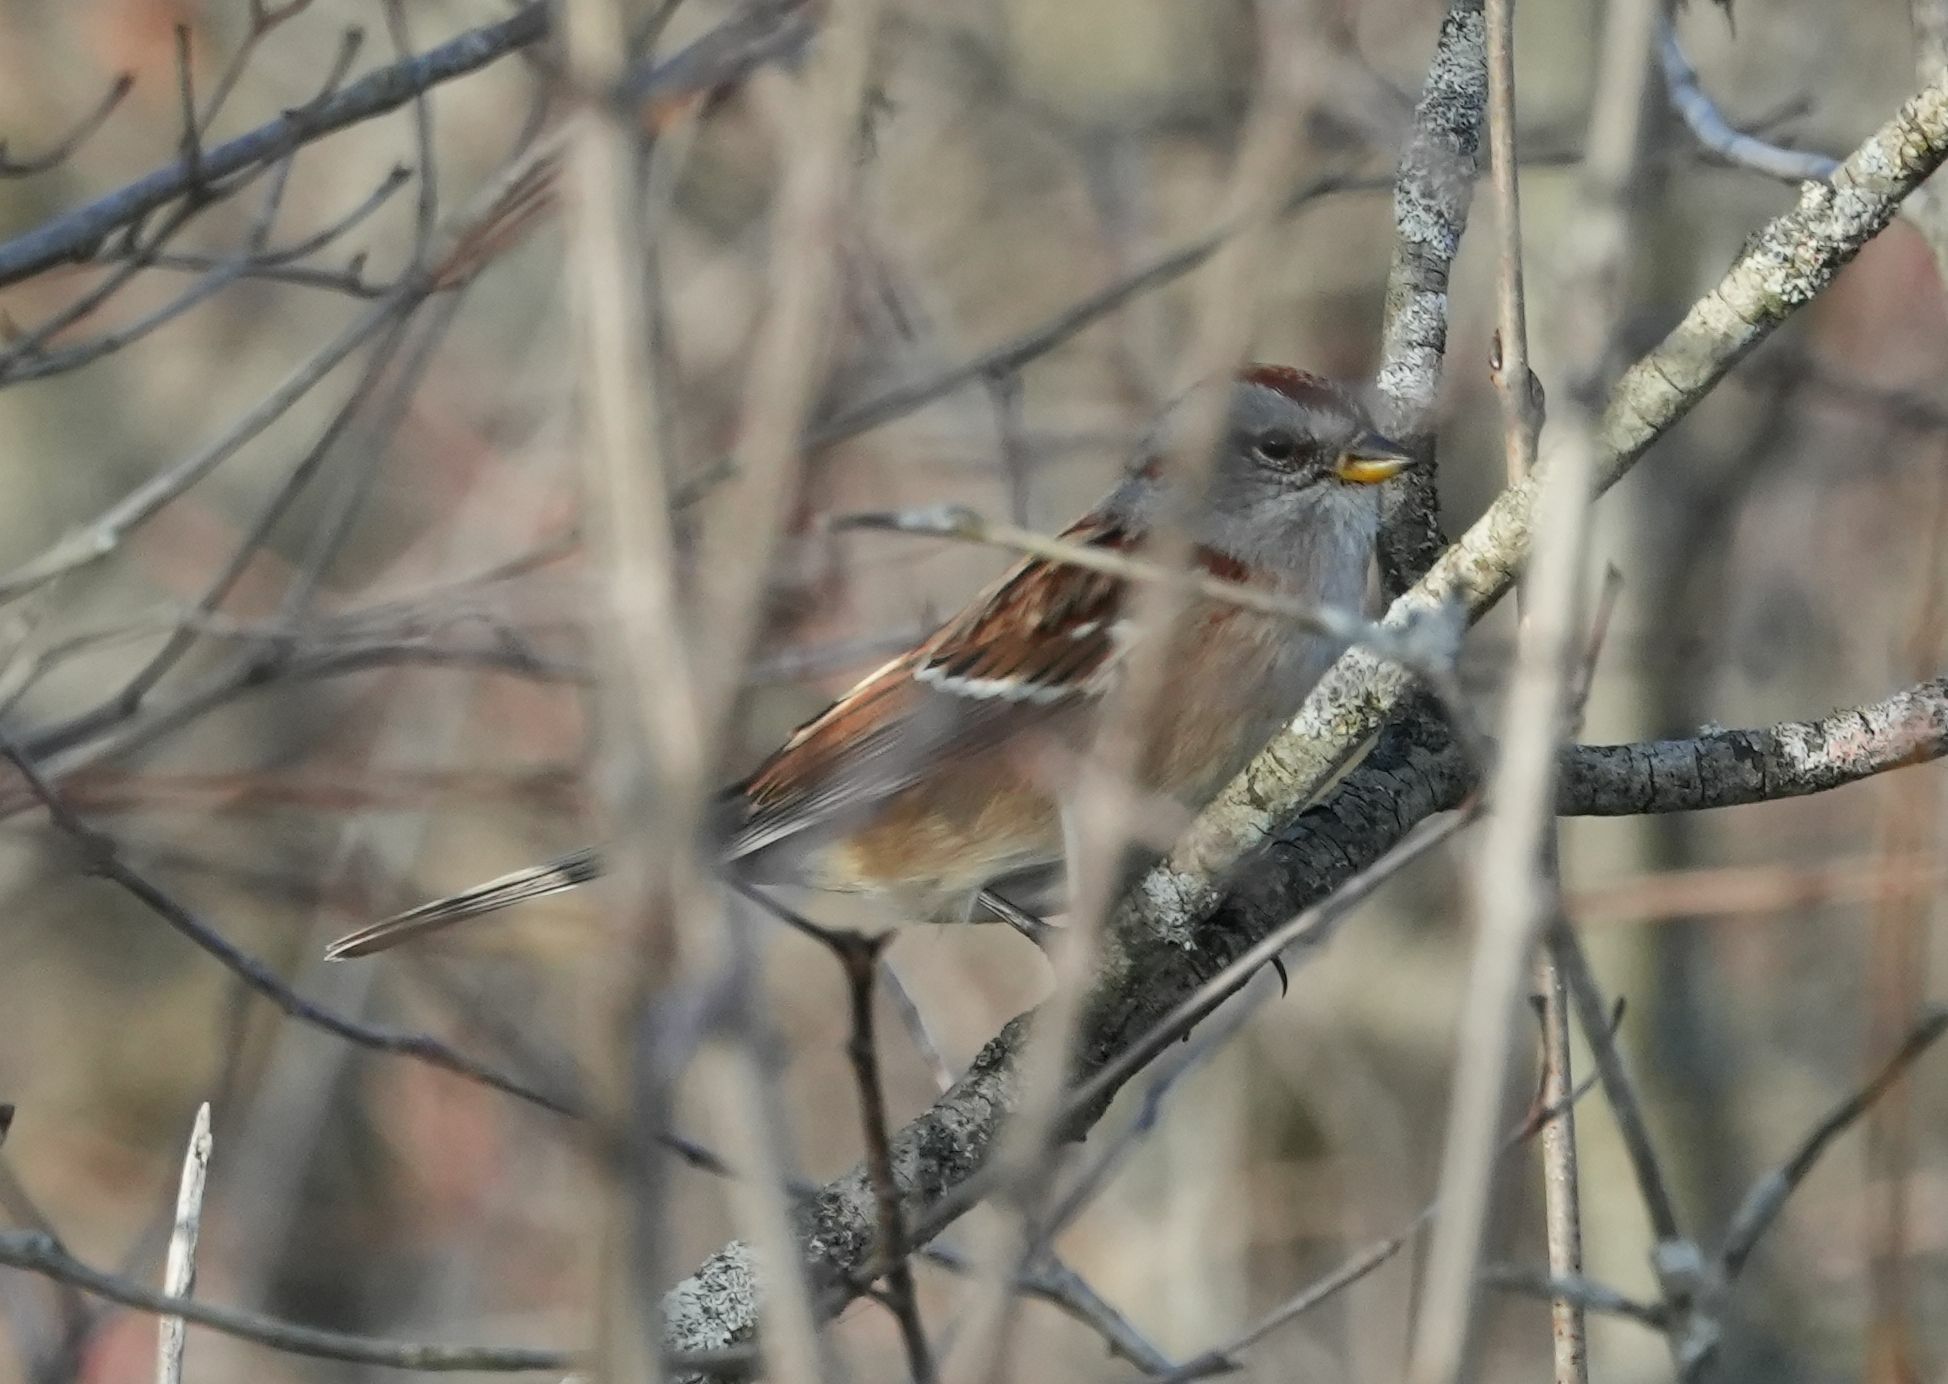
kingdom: Animalia
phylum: Chordata
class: Aves
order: Passeriformes
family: Passerellidae
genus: Spizelloides
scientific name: Spizelloides arborea
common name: American tree sparrow
